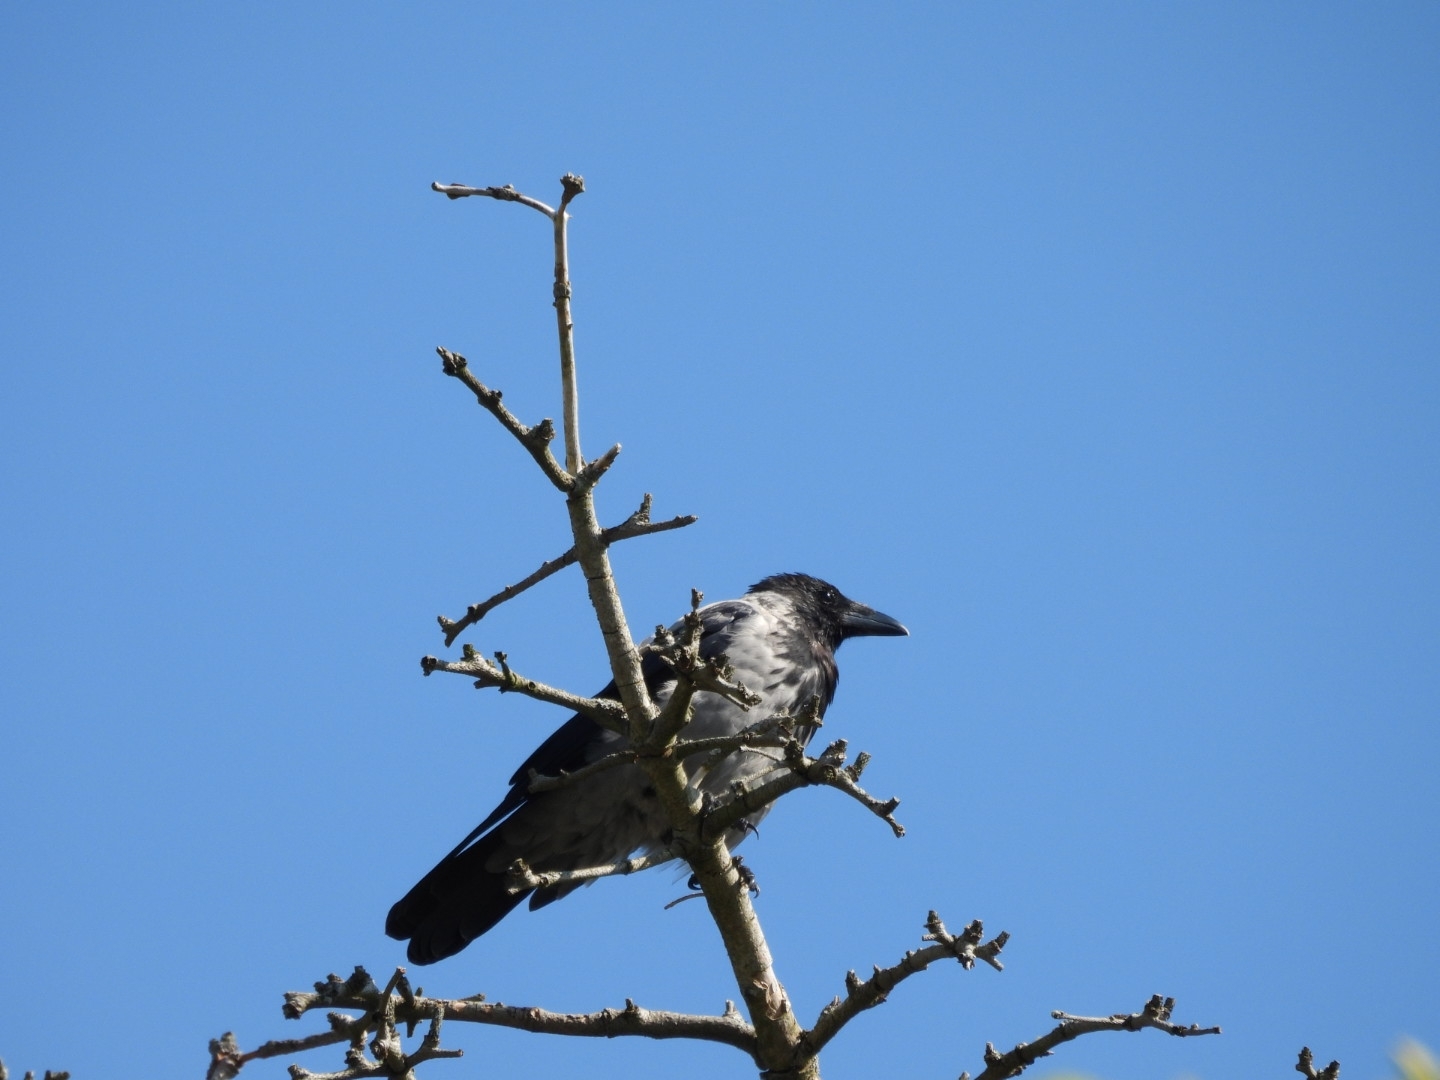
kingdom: Animalia
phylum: Chordata
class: Aves
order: Passeriformes
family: Corvidae
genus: Corvus
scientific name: Corvus cornix
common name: Hooded crow
